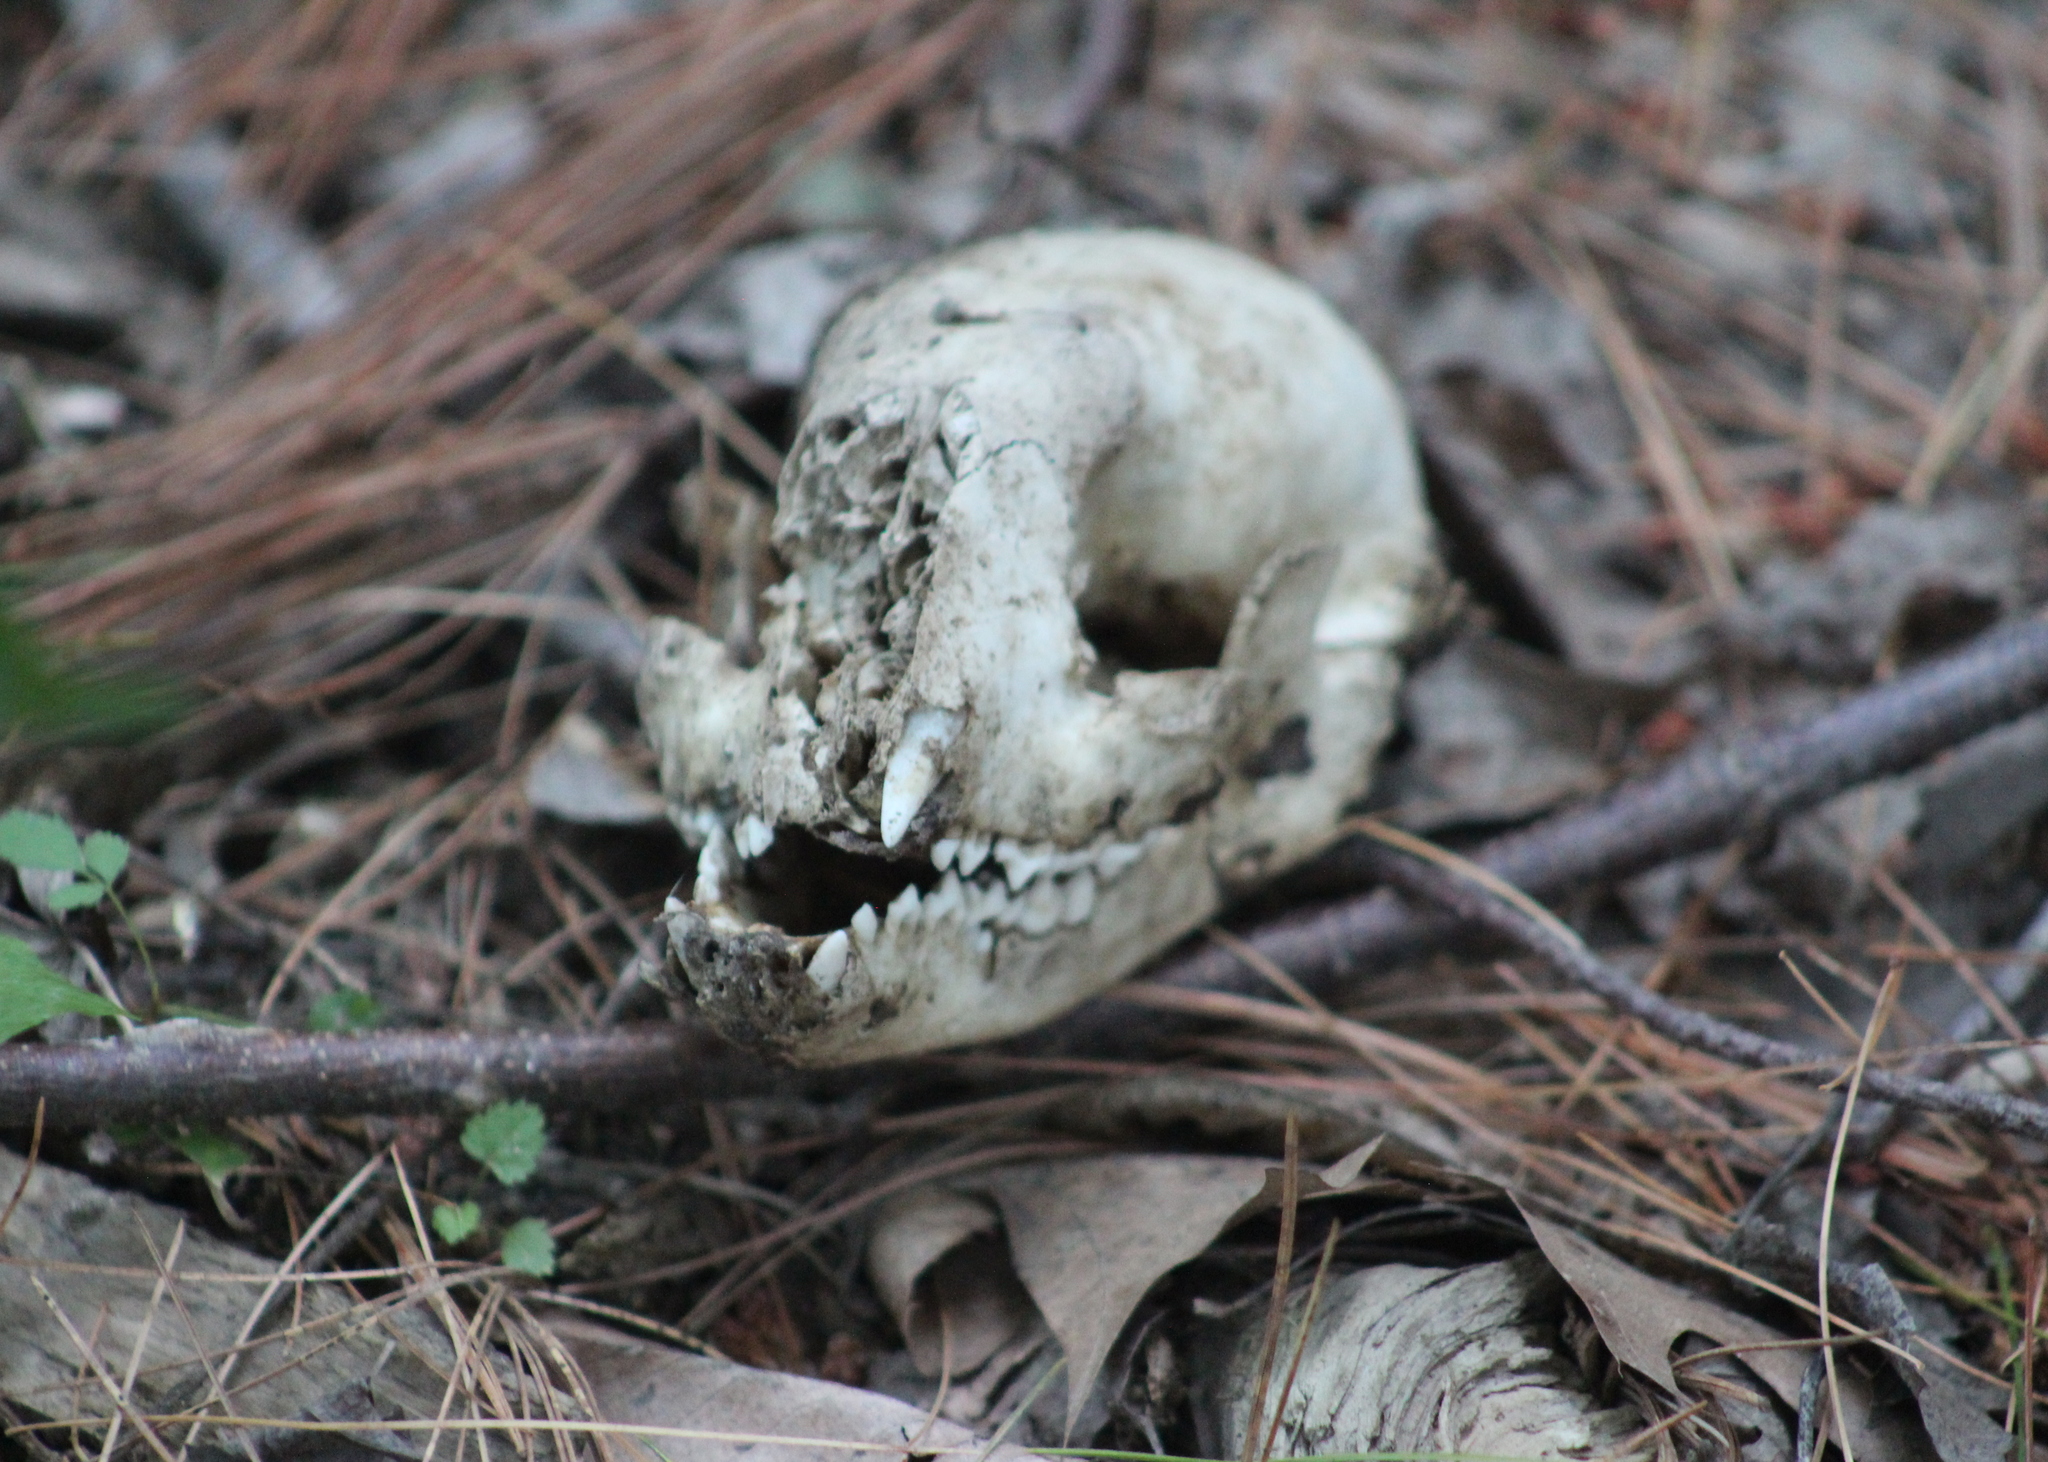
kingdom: Animalia
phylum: Chordata
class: Mammalia
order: Carnivora
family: Procyonidae
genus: Procyon
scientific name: Procyon lotor
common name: Raccoon
